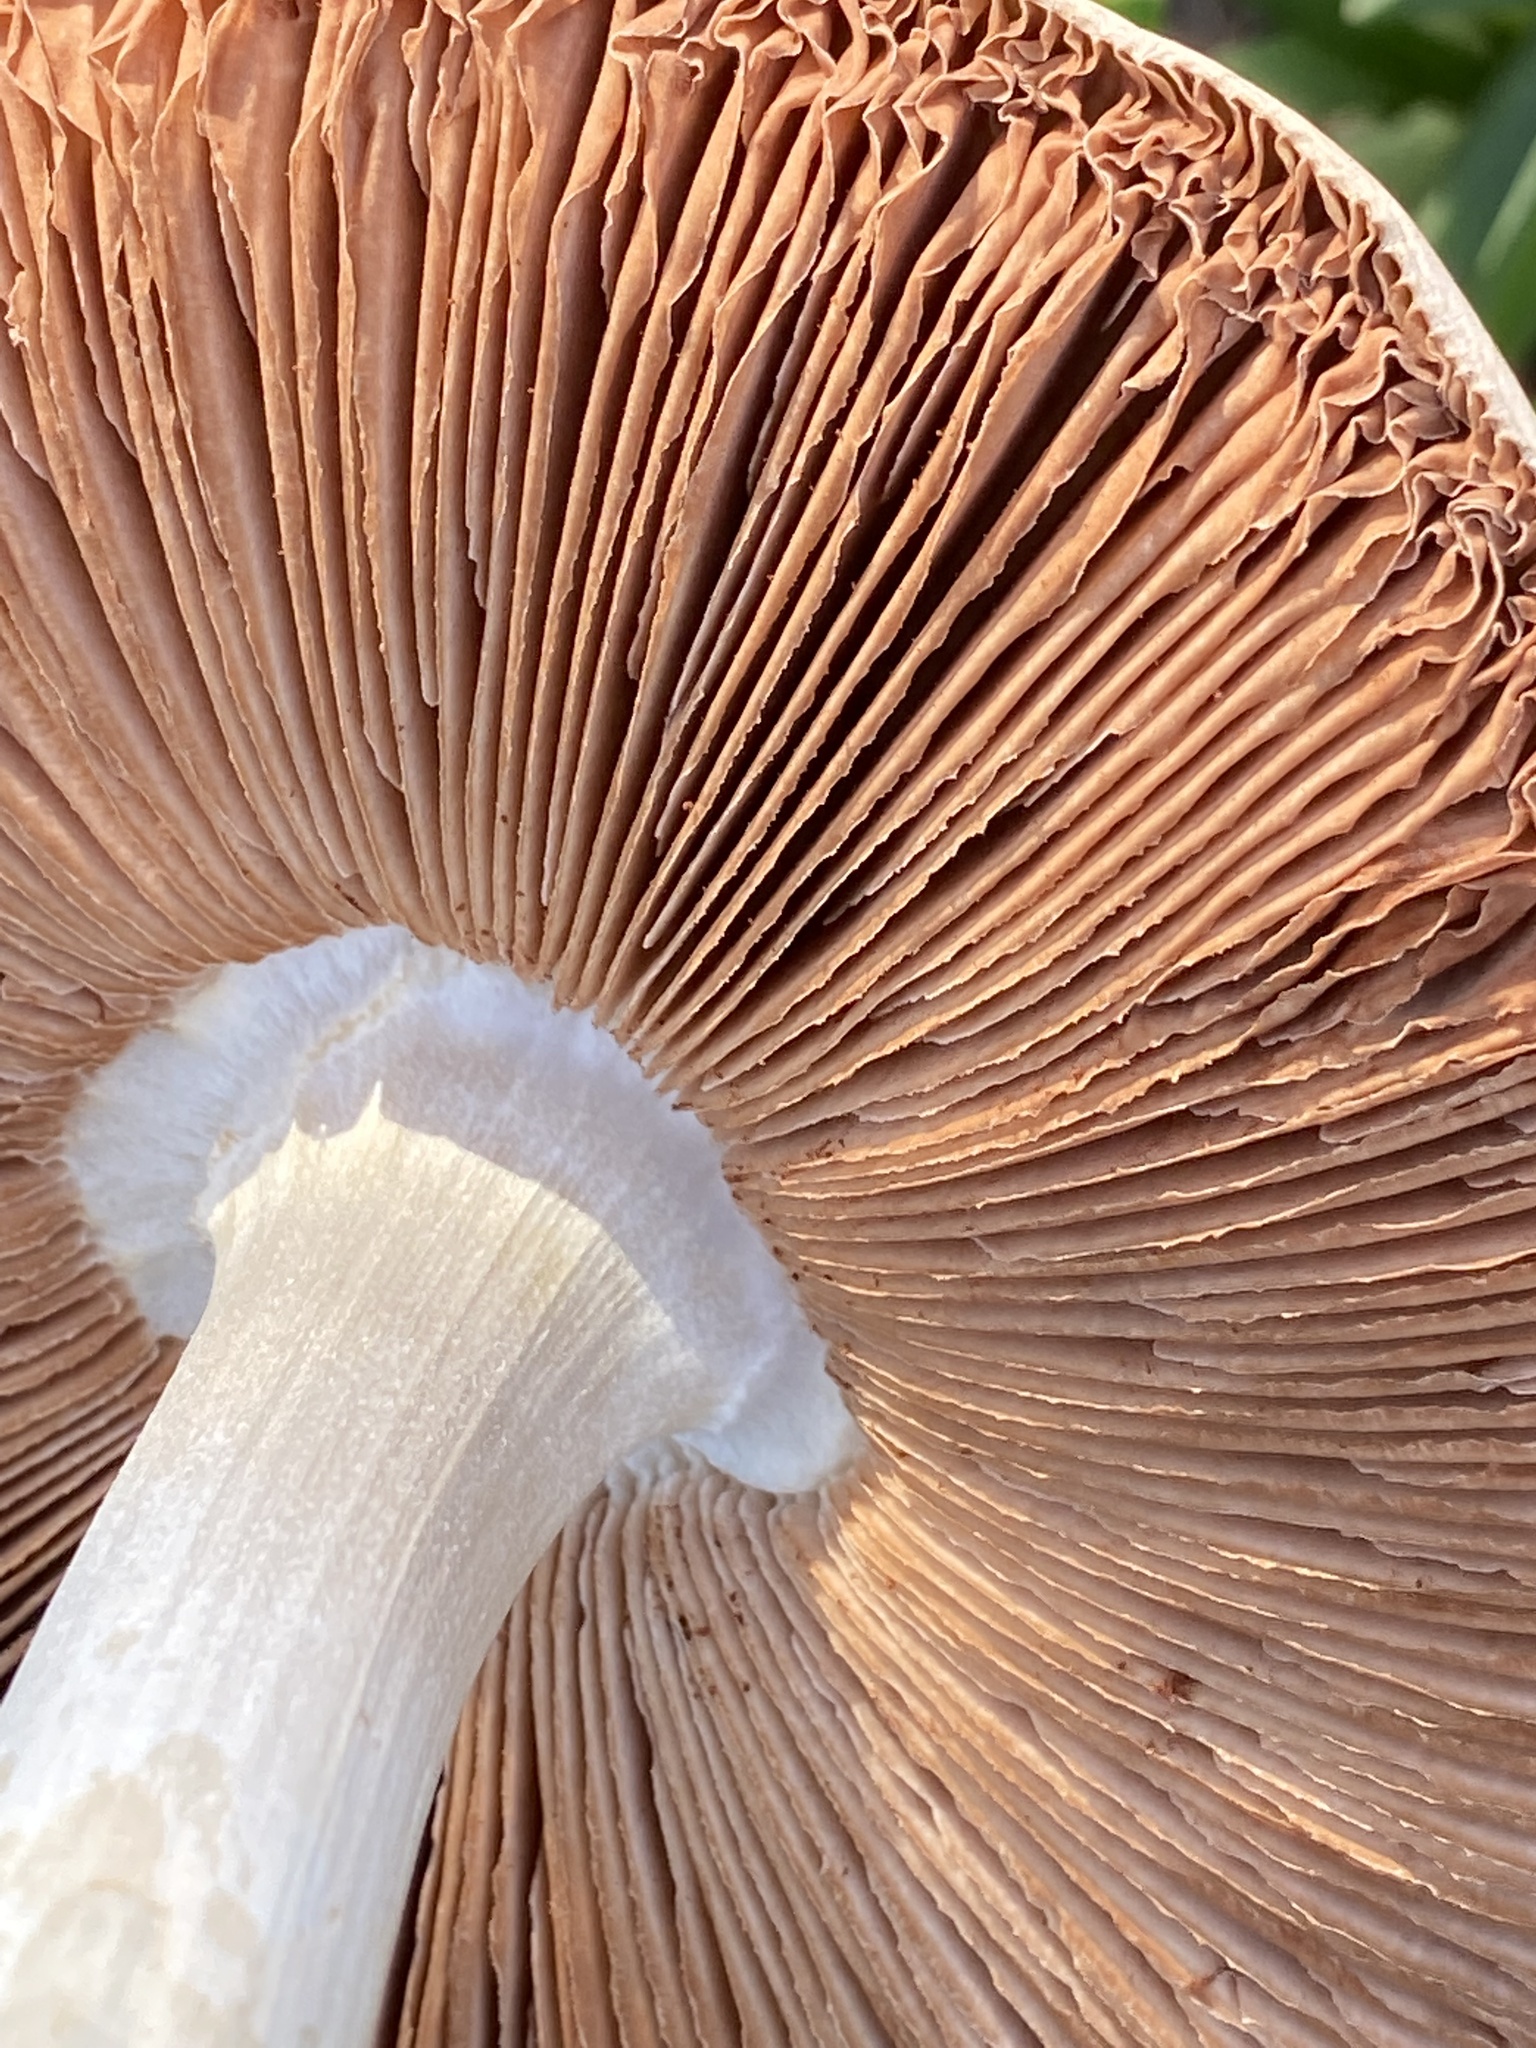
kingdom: Fungi
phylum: Basidiomycota
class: Agaricomycetes
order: Agaricales
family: Pluteaceae
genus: Volvopluteus
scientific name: Volvopluteus gloiocephalus
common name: Stubble rosegill
